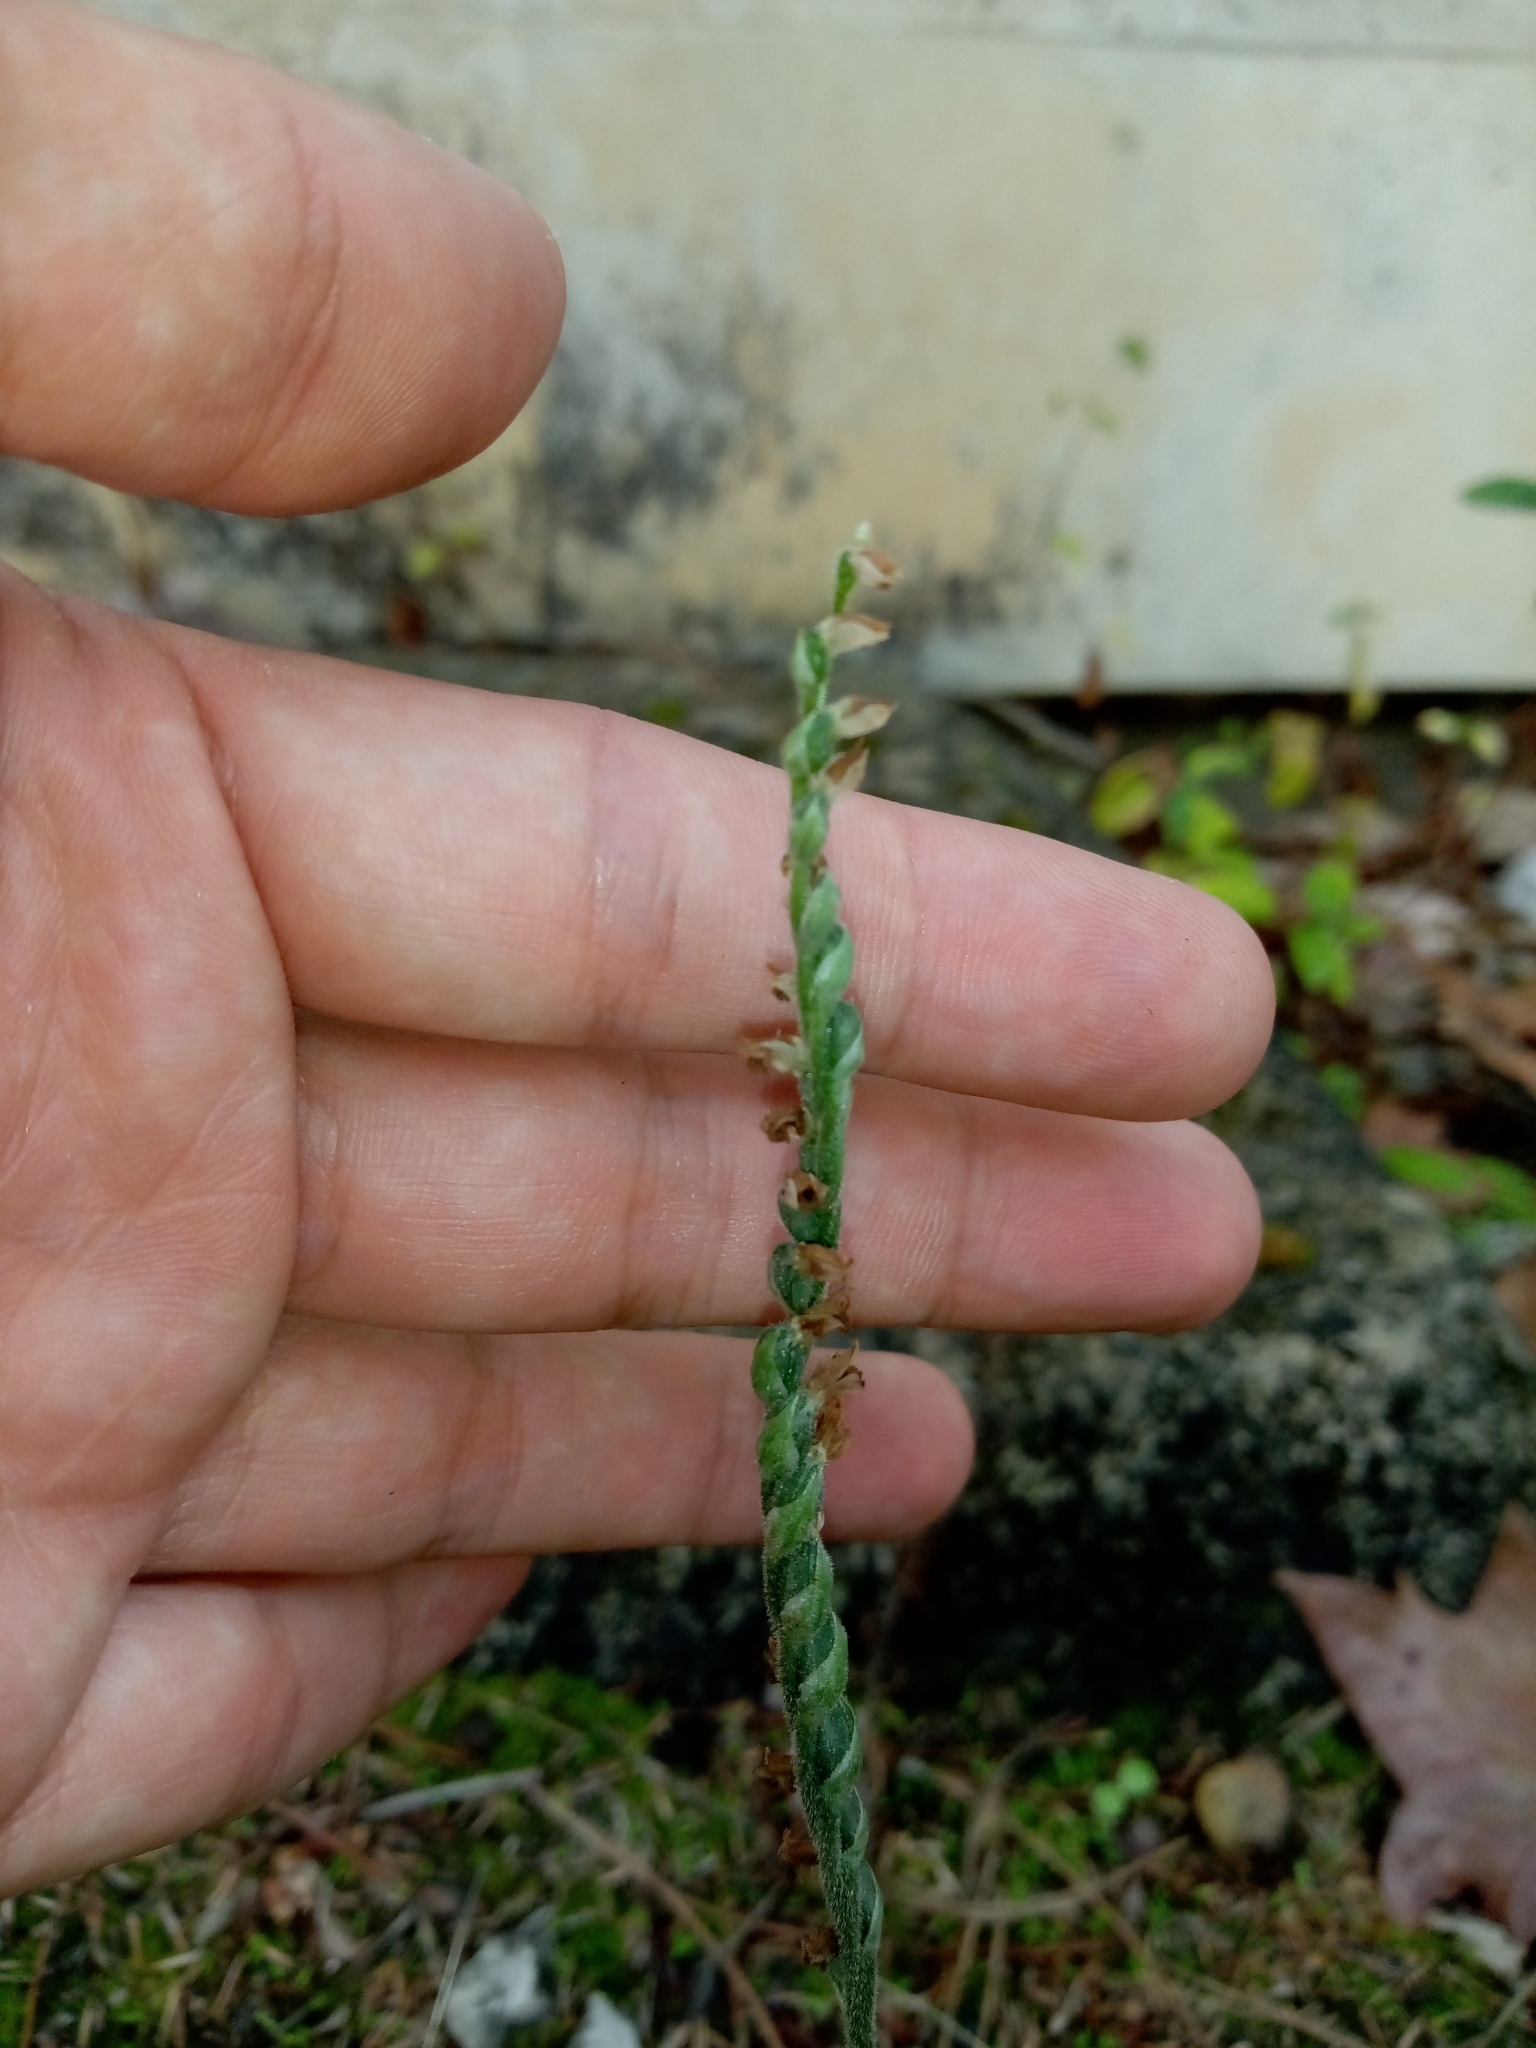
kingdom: Plantae
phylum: Tracheophyta
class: Liliopsida
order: Asparagales
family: Orchidaceae
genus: Spiranthes
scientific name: Spiranthes spiralis
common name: Autumn lady's-tresses
